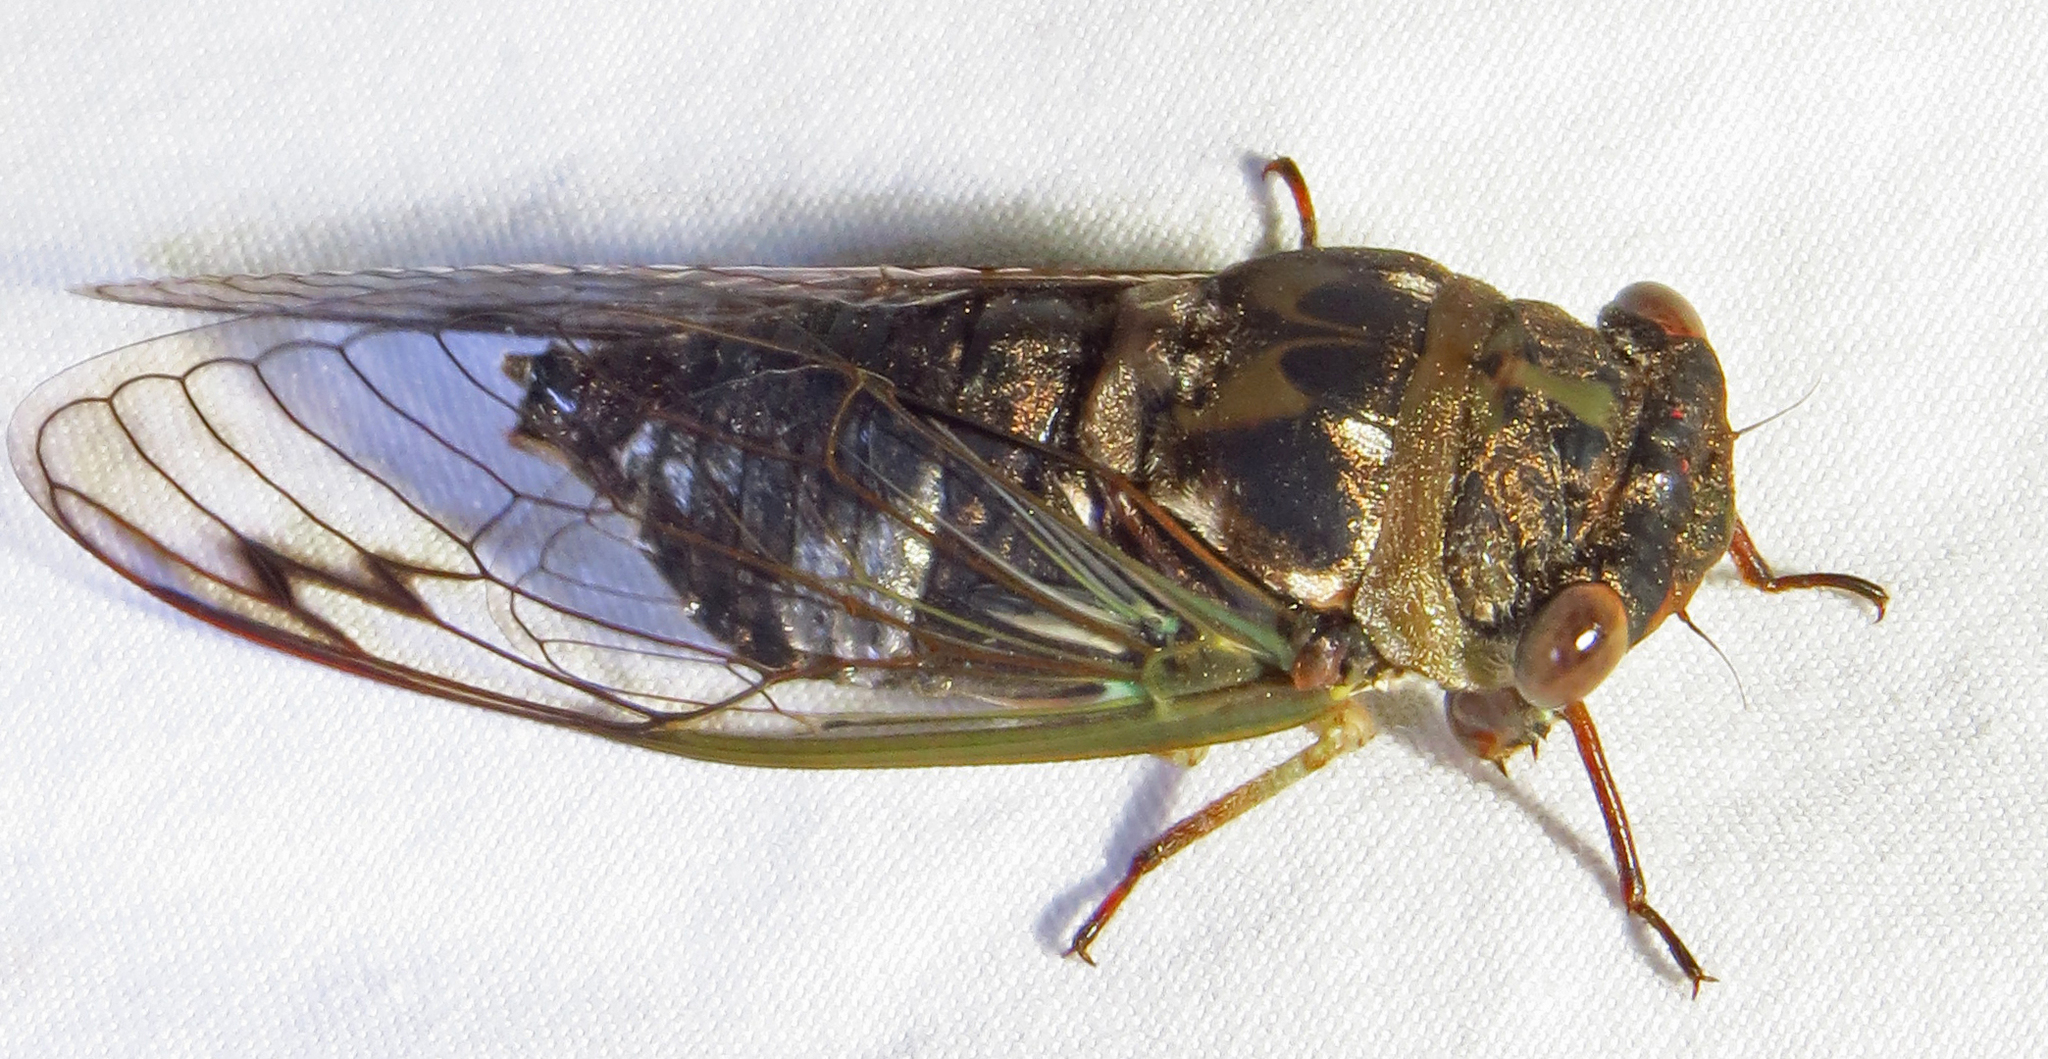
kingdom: Animalia
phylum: Arthropoda
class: Insecta
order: Hemiptera
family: Cicadidae
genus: Neotibicen
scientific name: Neotibicen davisi
